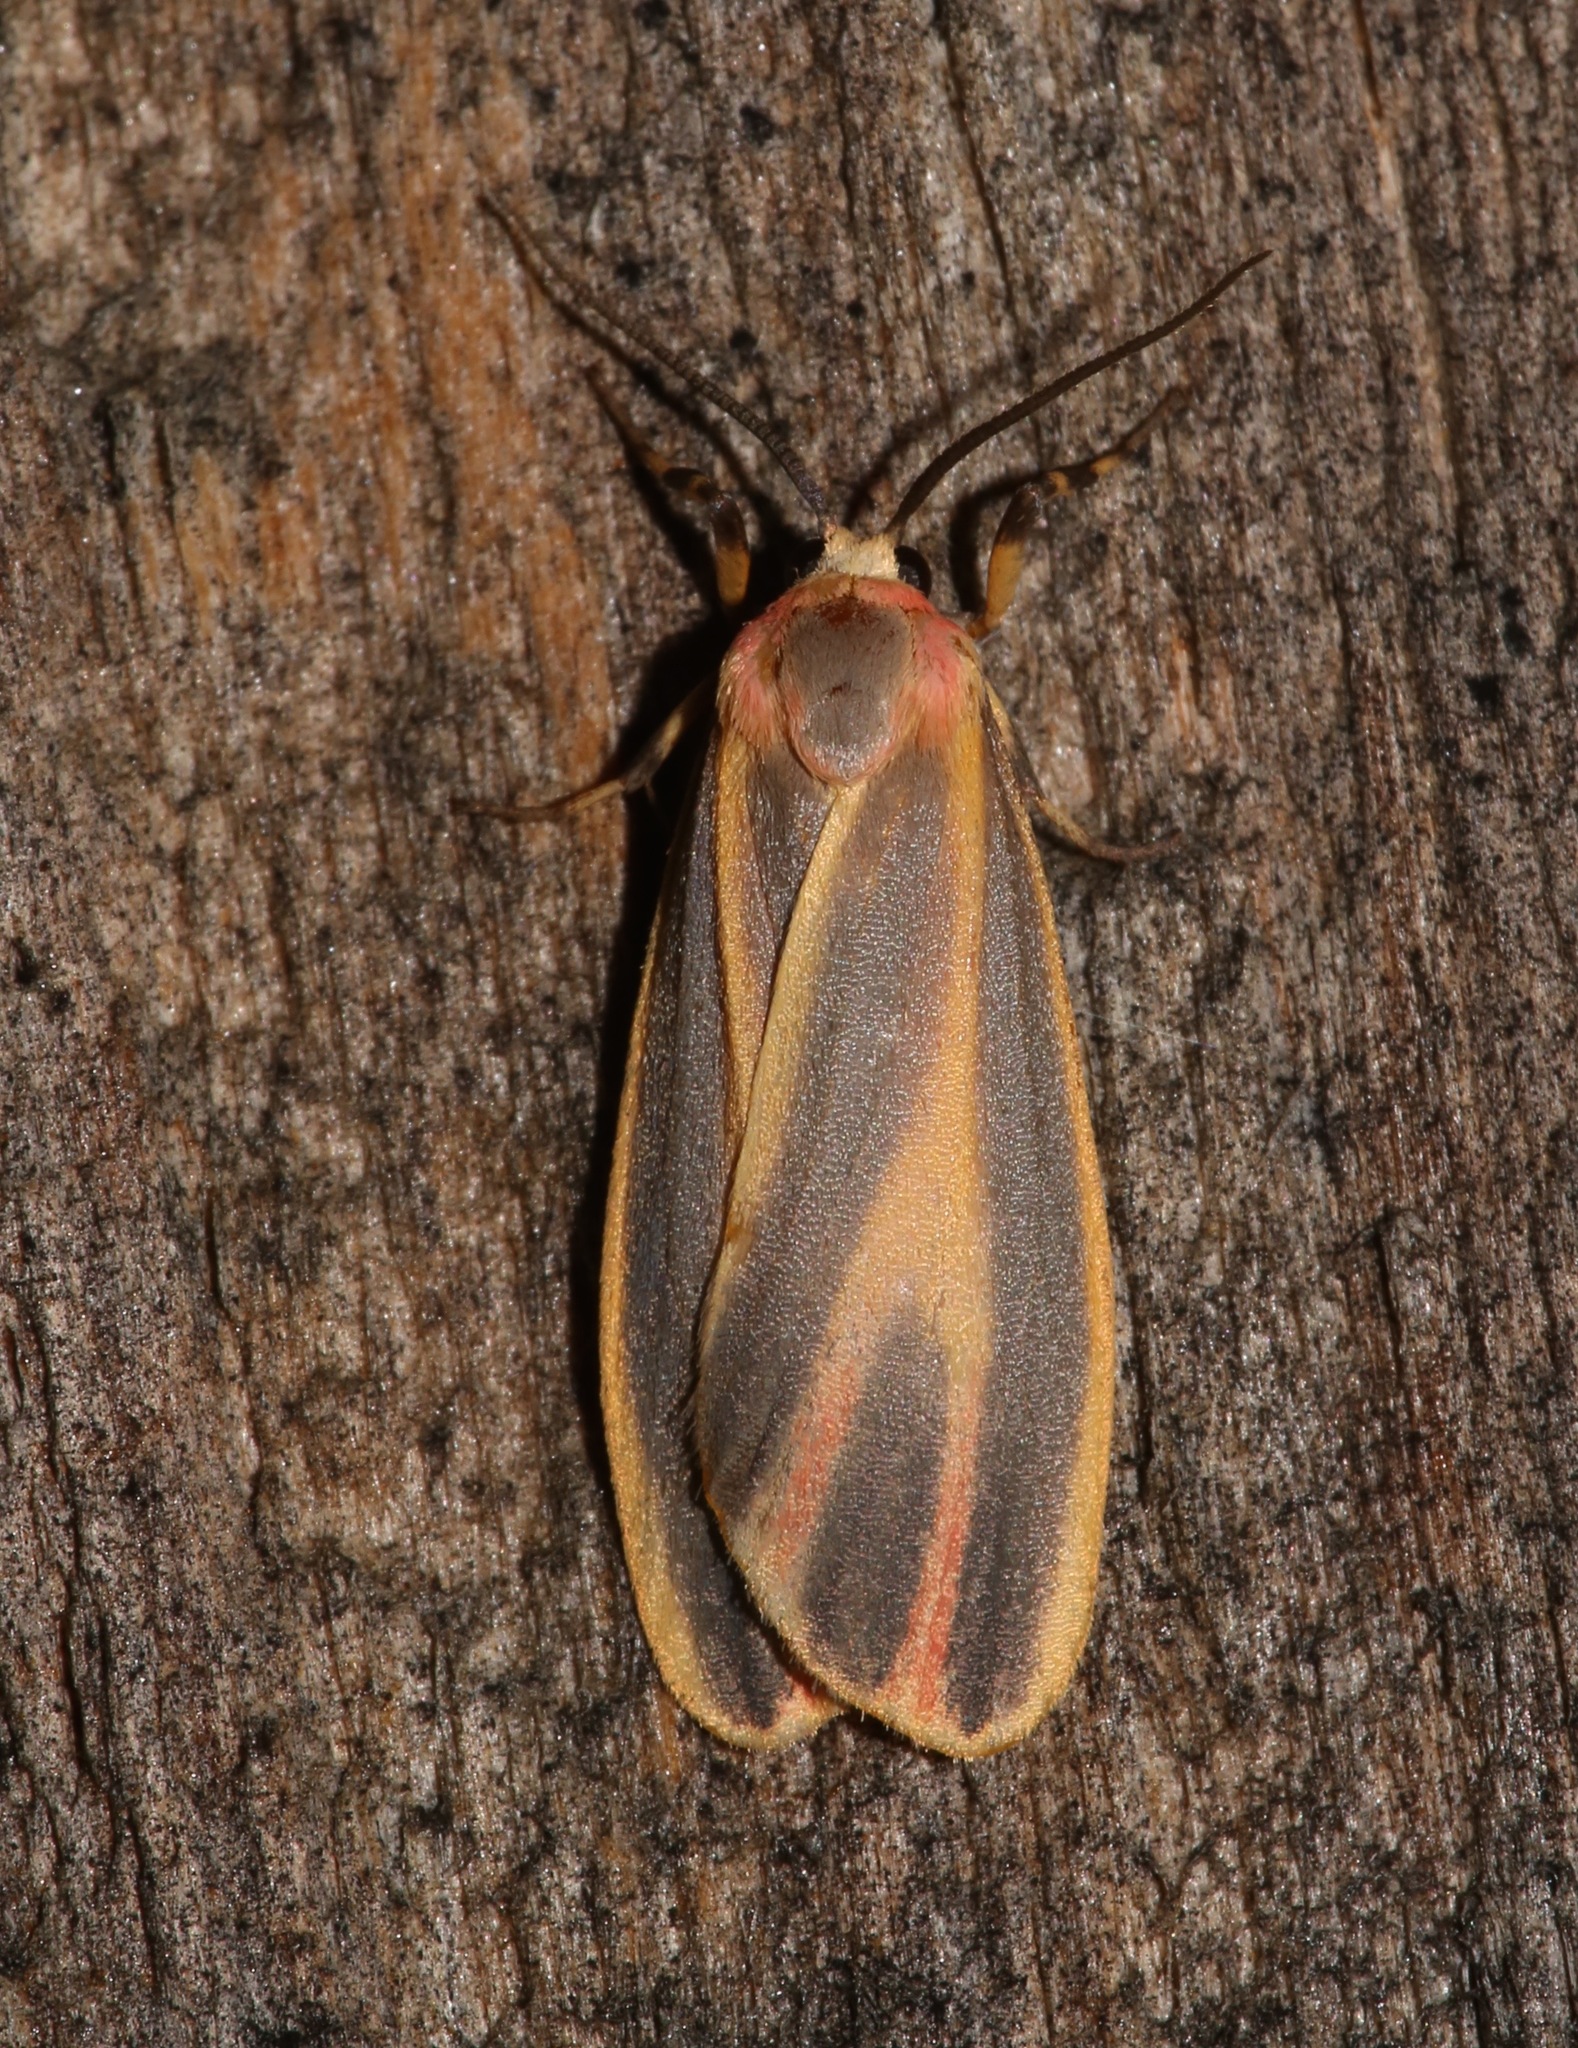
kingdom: Animalia
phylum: Arthropoda
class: Insecta
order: Lepidoptera
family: Erebidae
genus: Hypoprepia
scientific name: Hypoprepia fucosa
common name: Painted lichen moth
